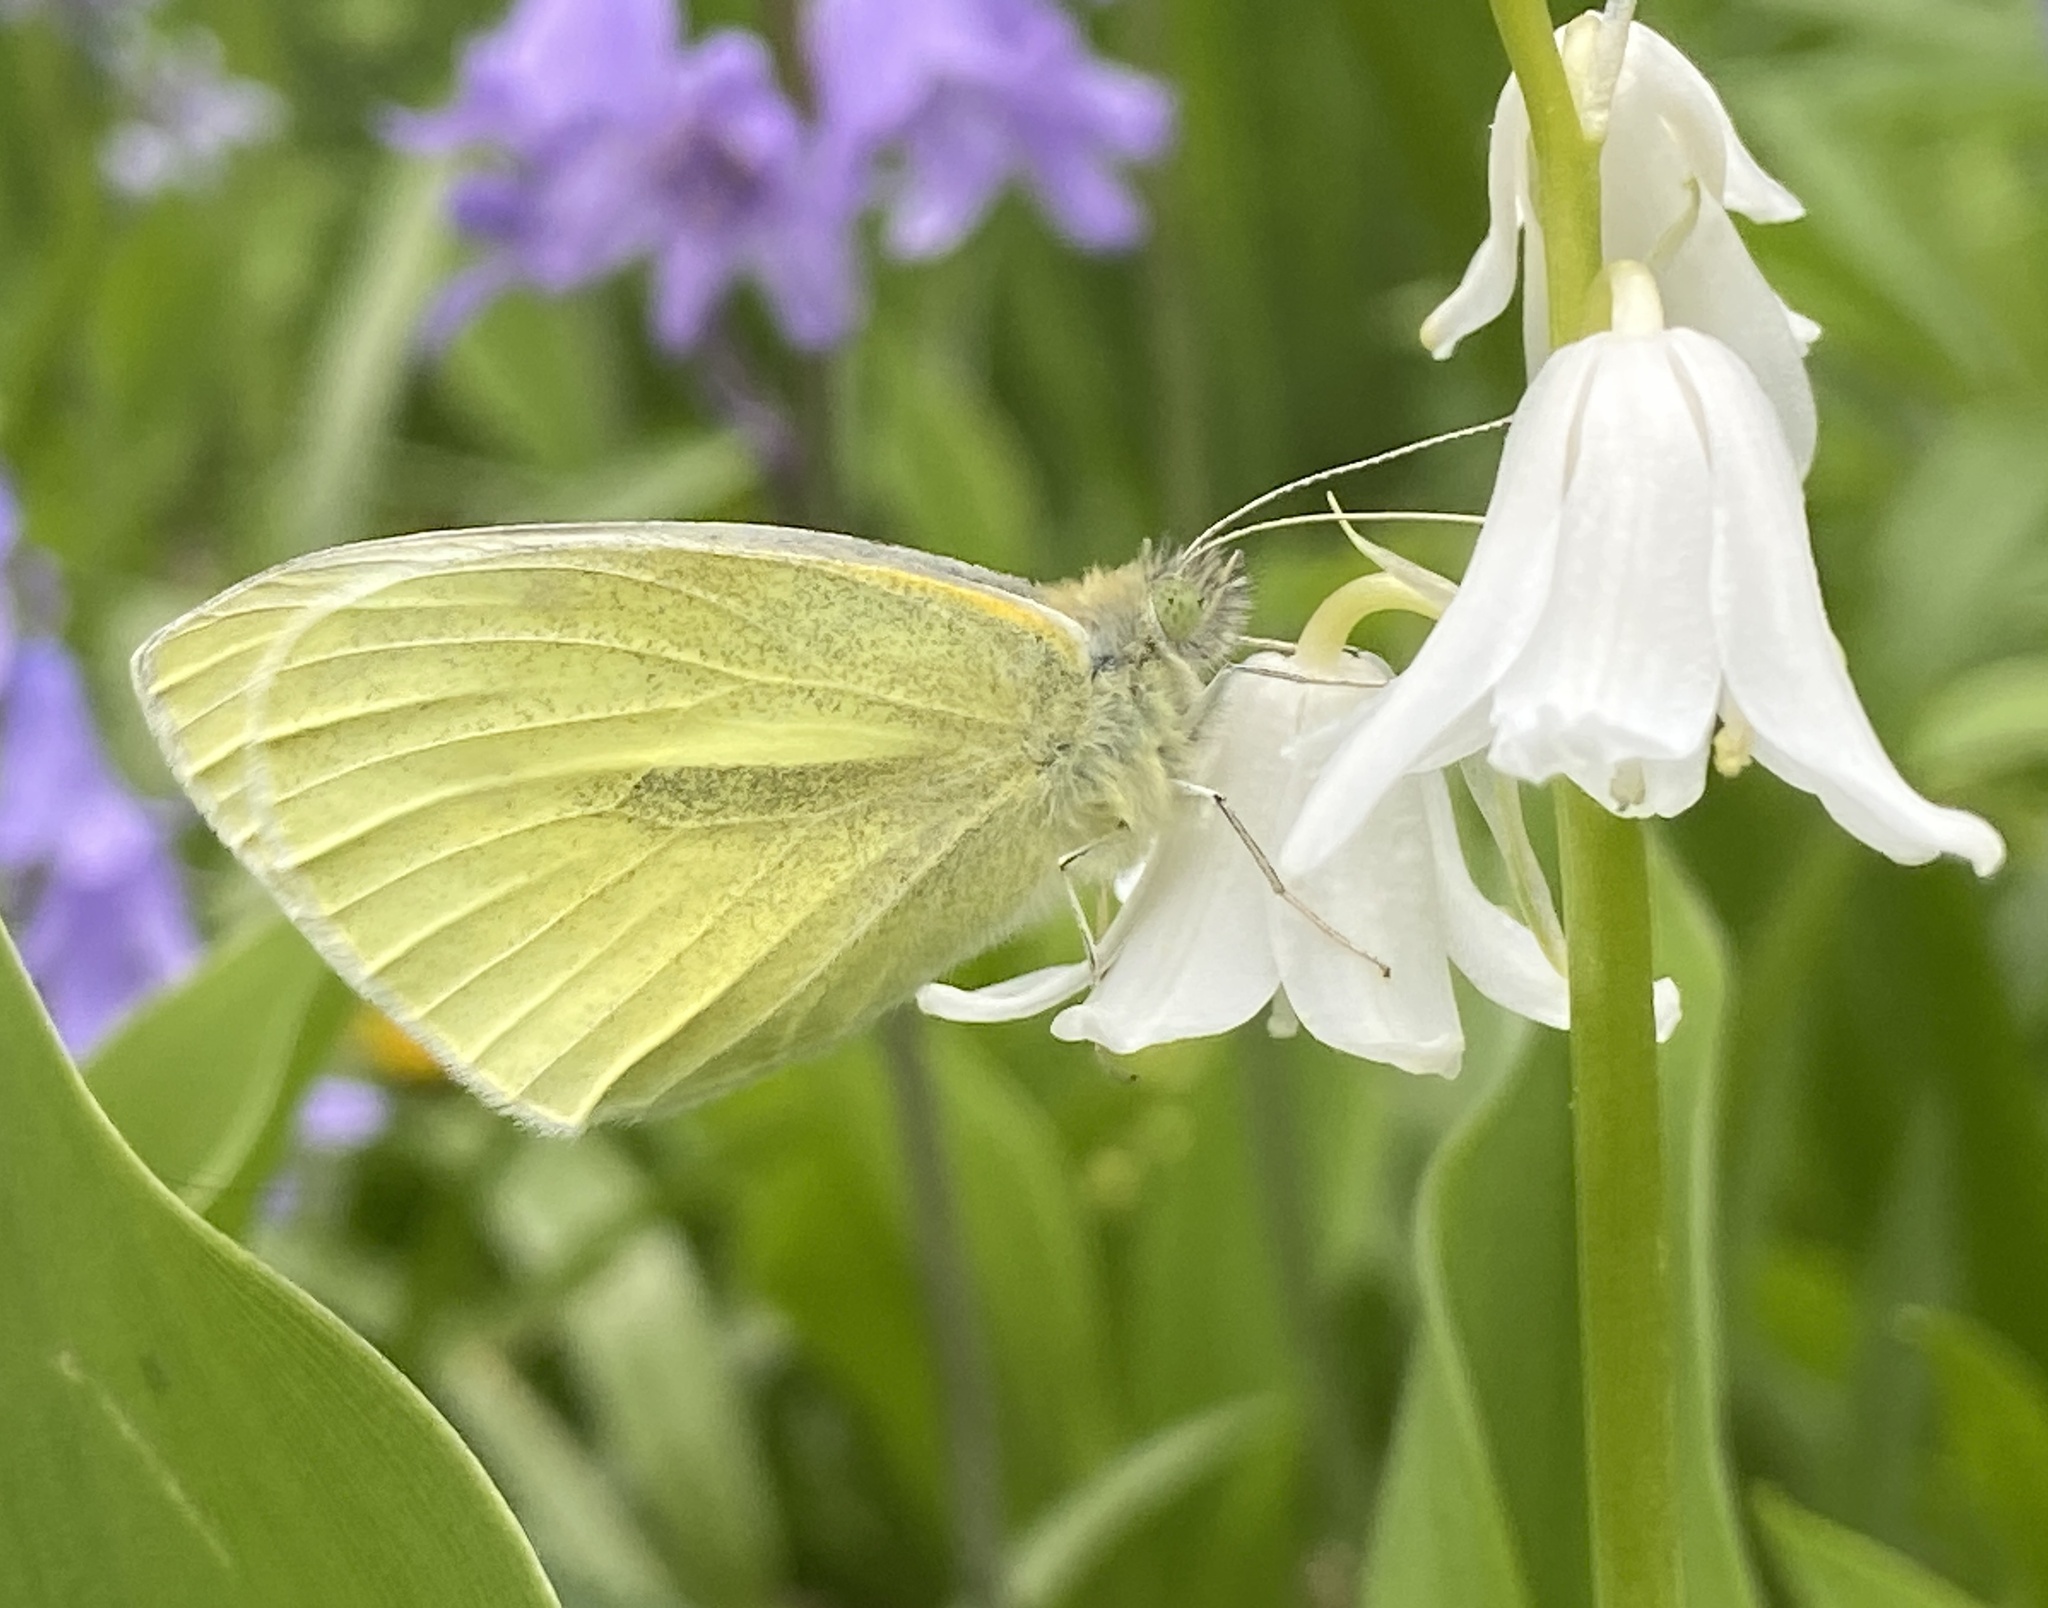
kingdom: Animalia
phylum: Arthropoda
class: Insecta
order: Lepidoptera
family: Pieridae
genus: Pieris
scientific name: Pieris rapae
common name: Small white
